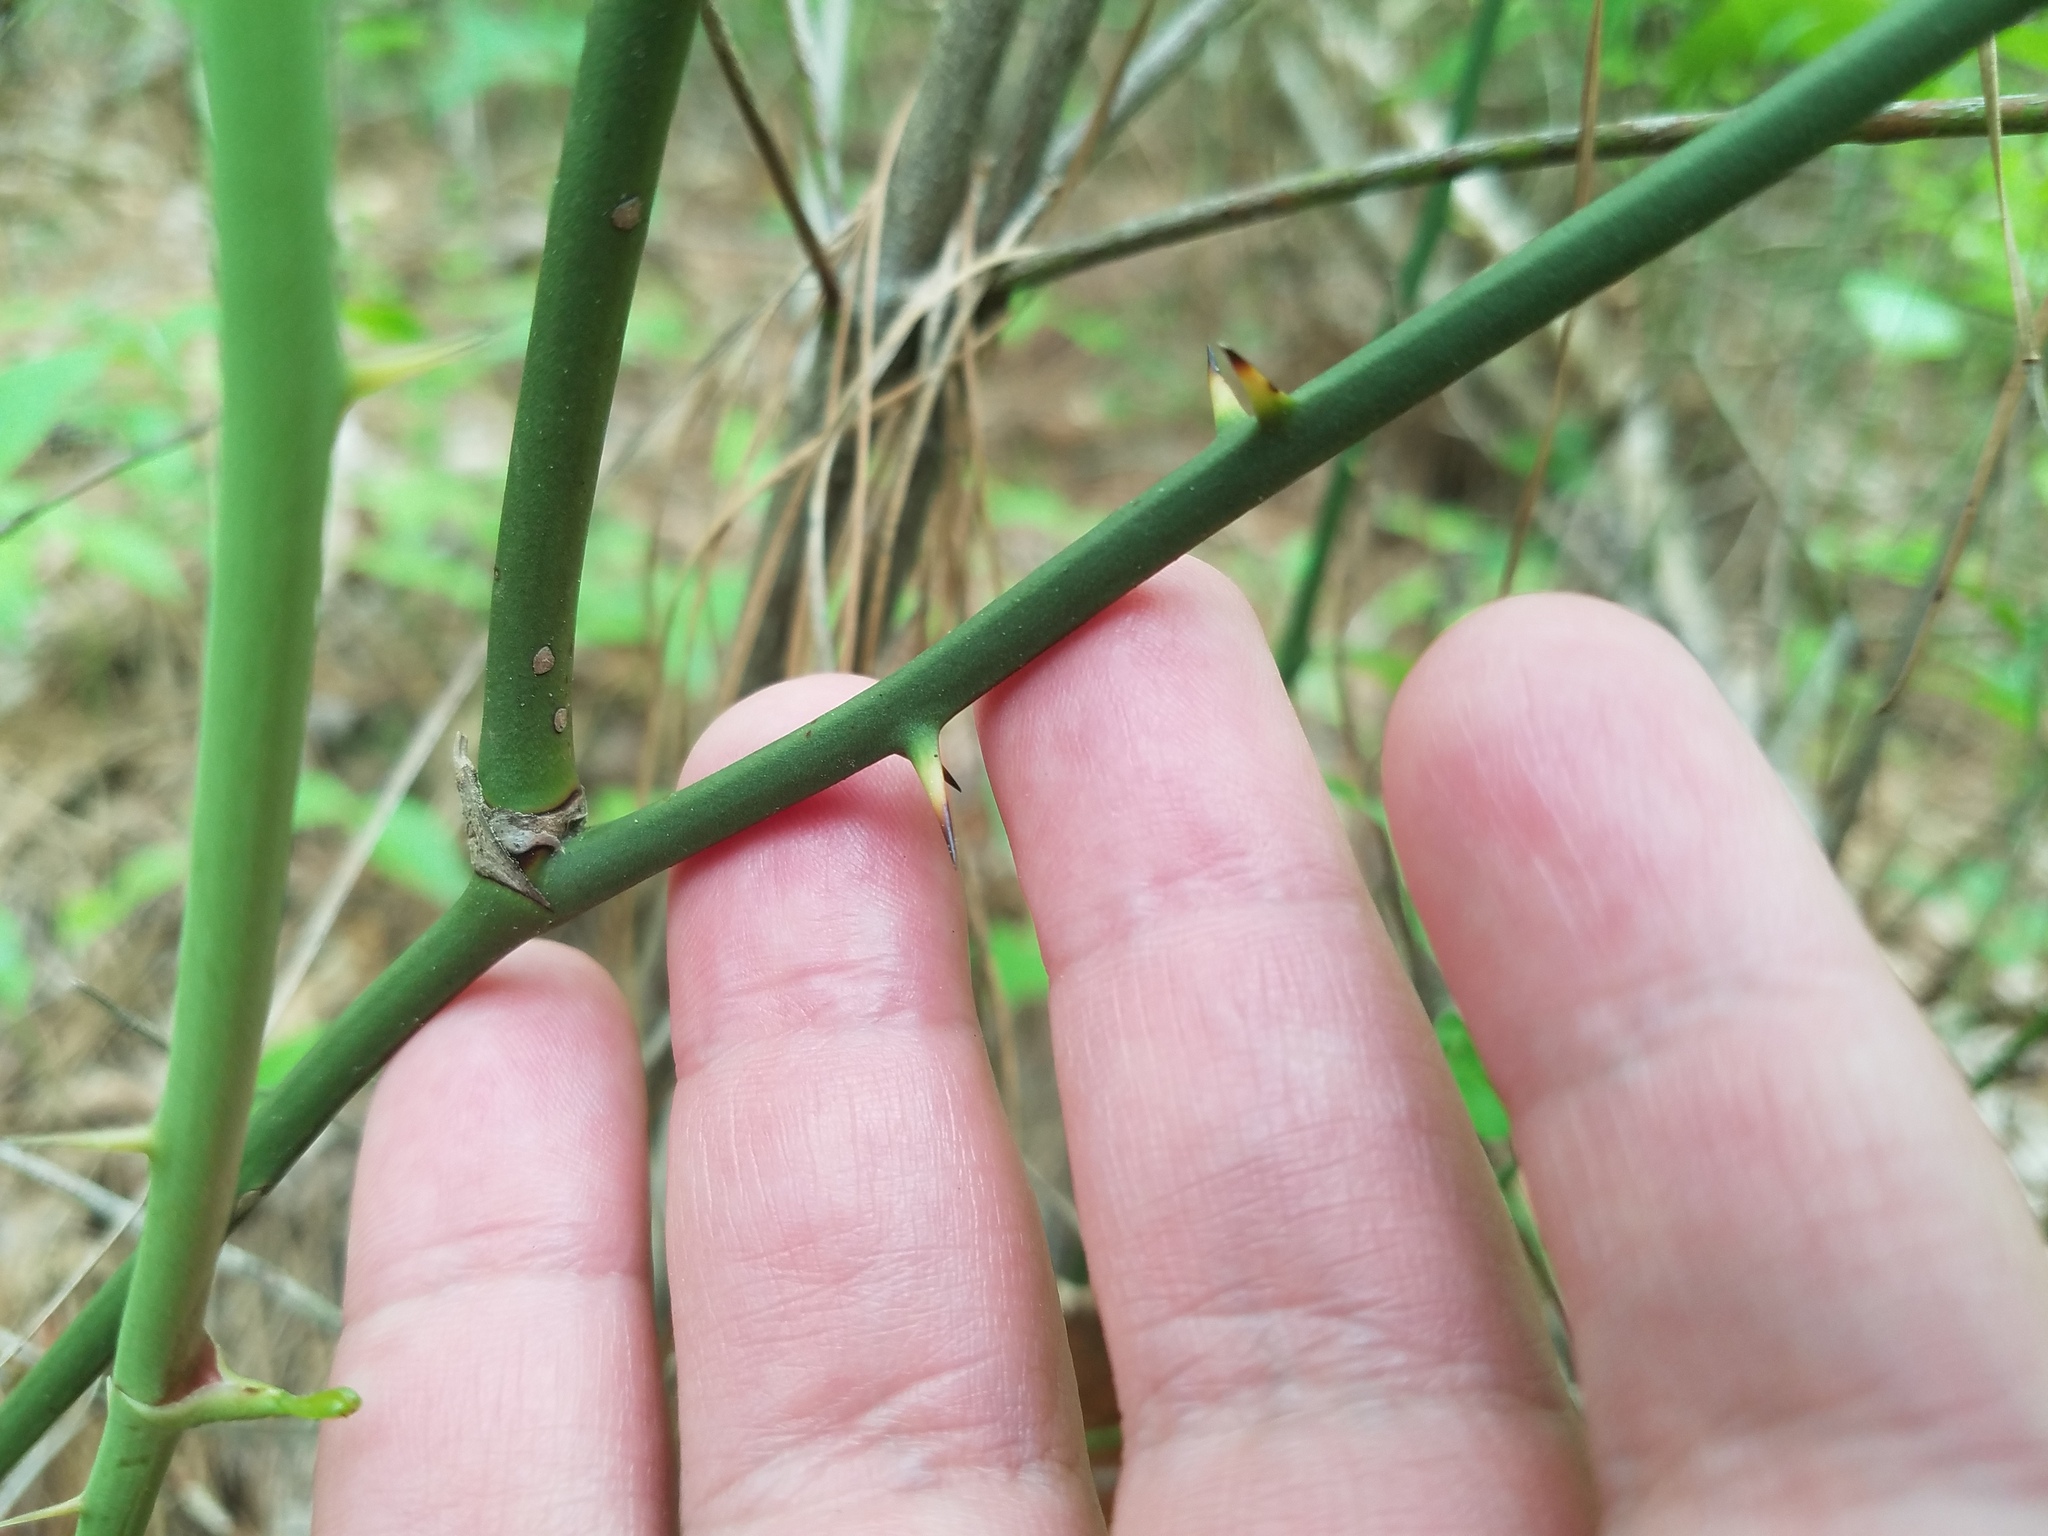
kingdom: Plantae
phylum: Tracheophyta
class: Liliopsida
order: Liliales
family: Smilacaceae
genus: Smilax
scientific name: Smilax rotundifolia
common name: Bullbriar
